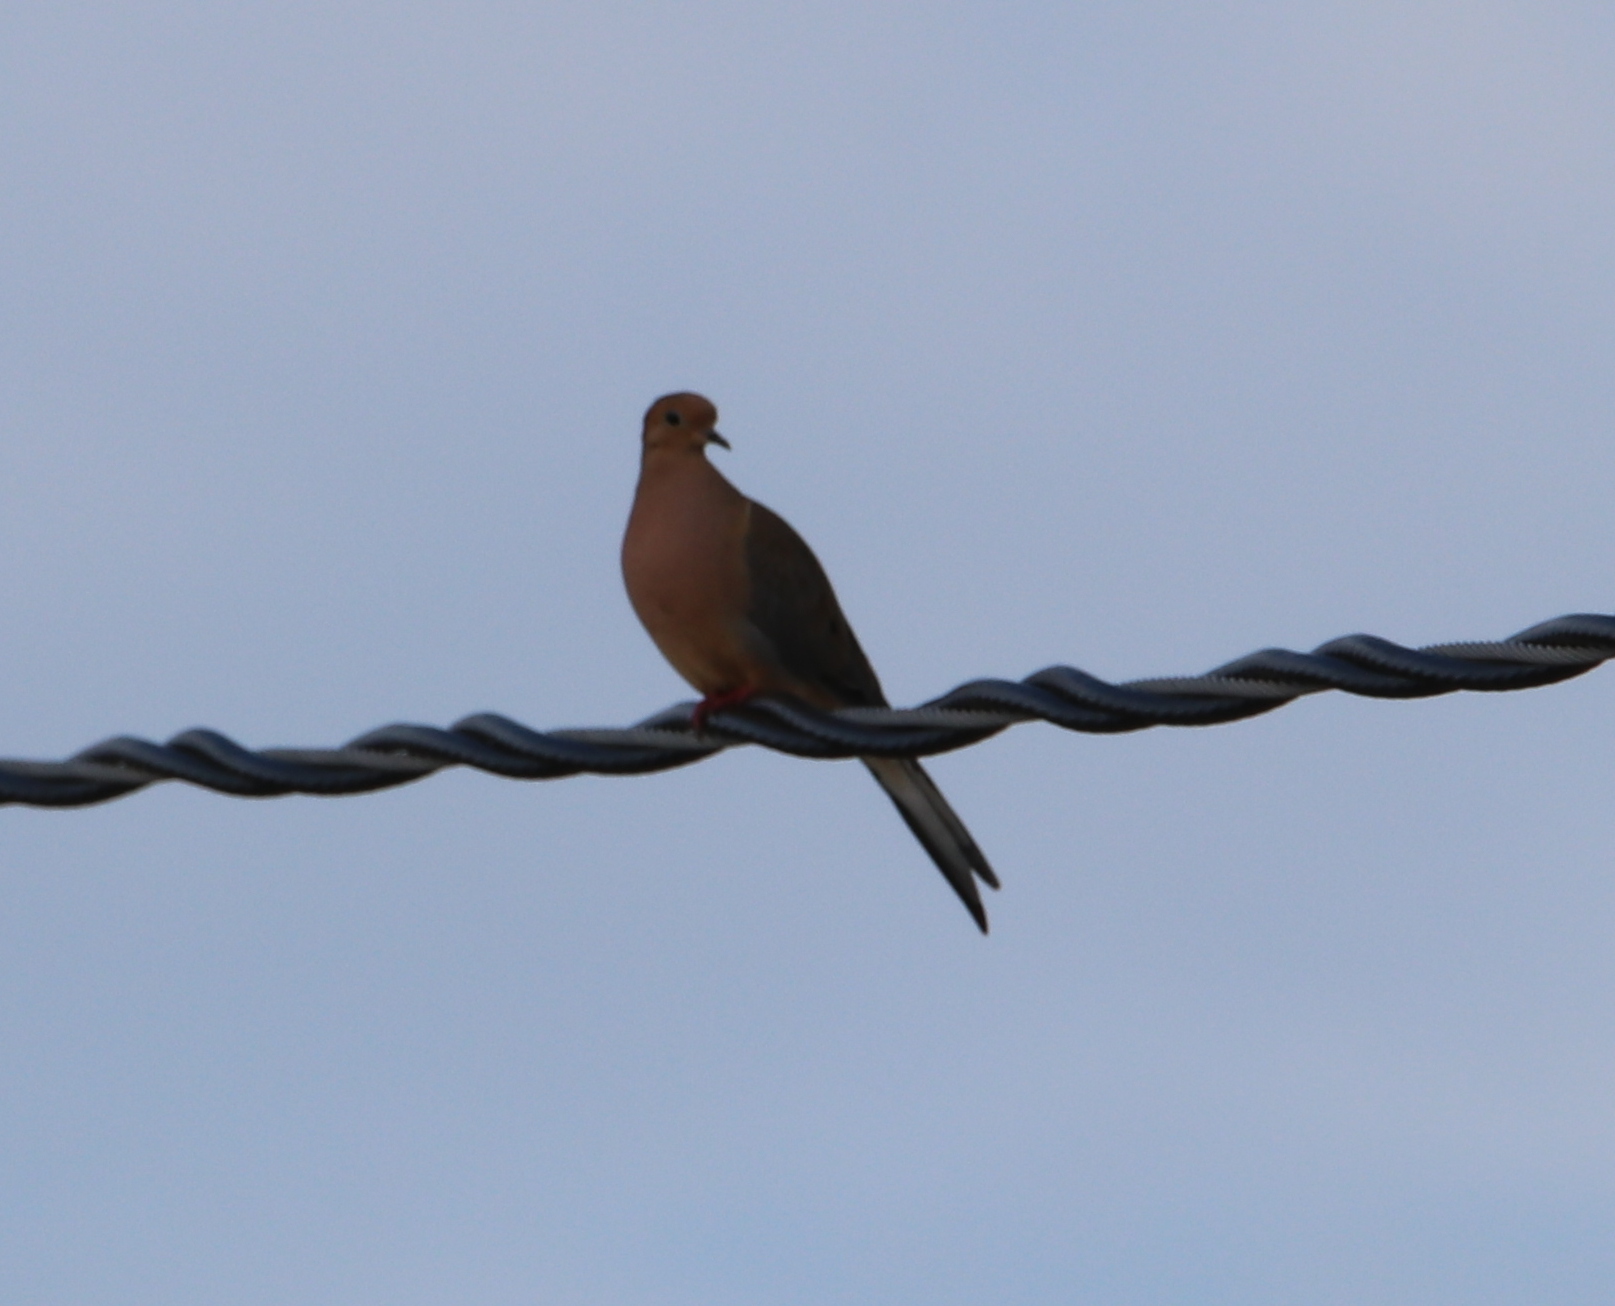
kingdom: Animalia
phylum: Chordata
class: Aves
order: Columbiformes
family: Columbidae
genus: Zenaida
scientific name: Zenaida macroura
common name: Mourning dove
